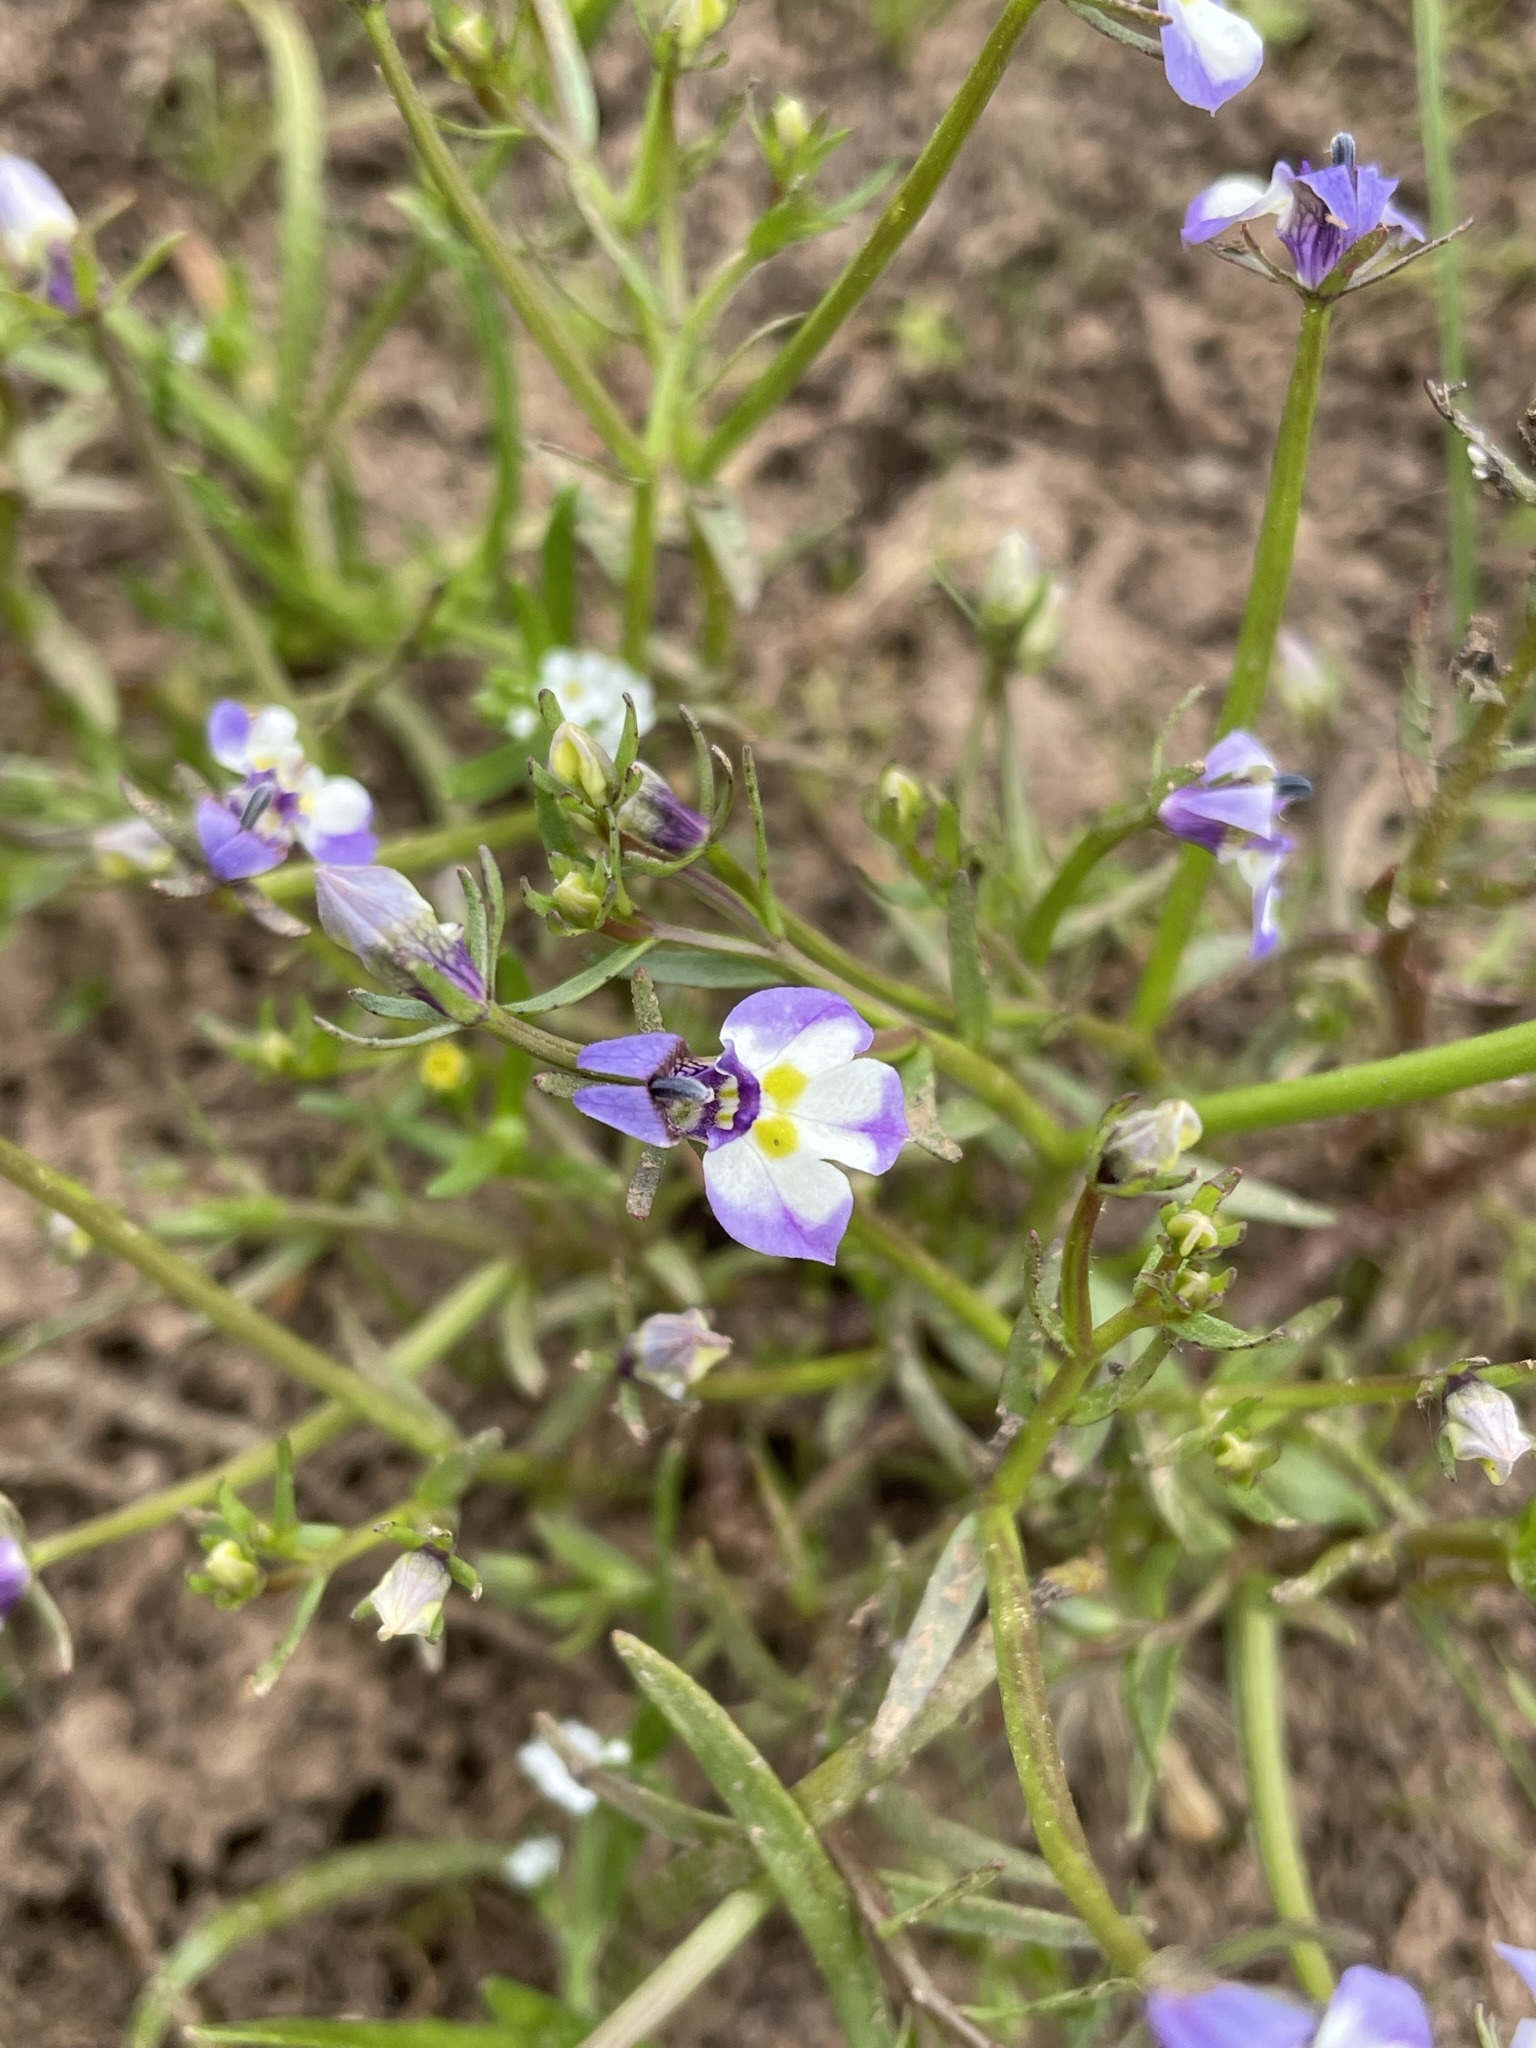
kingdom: Plantae
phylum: Tracheophyta
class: Magnoliopsida
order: Asterales
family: Campanulaceae
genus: Downingia
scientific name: Downingia bicornuta
